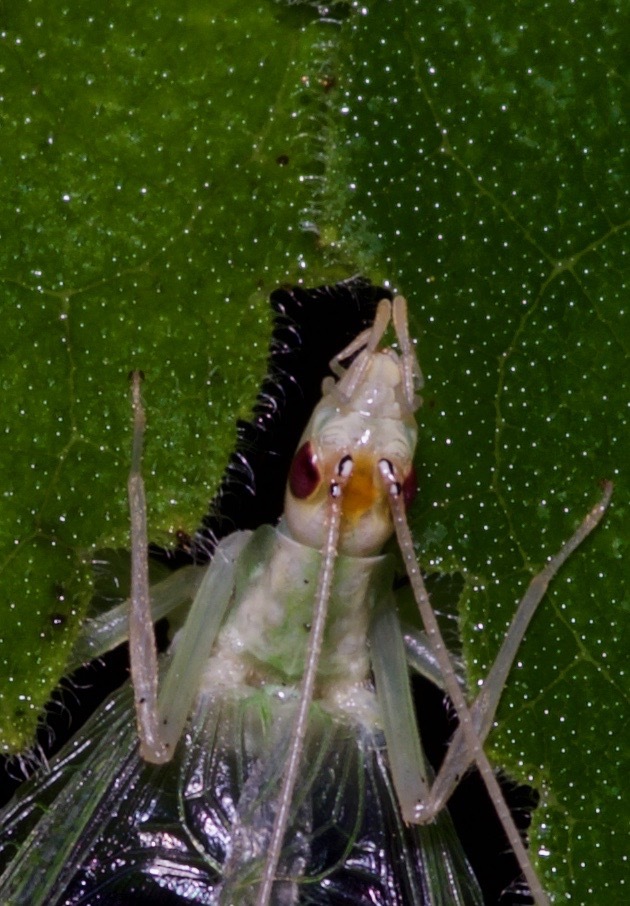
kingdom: Animalia
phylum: Arthropoda
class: Insecta
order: Orthoptera
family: Gryllidae
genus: Oecanthus
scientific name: Oecanthus niveus
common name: Narrow-winged tree cricket
